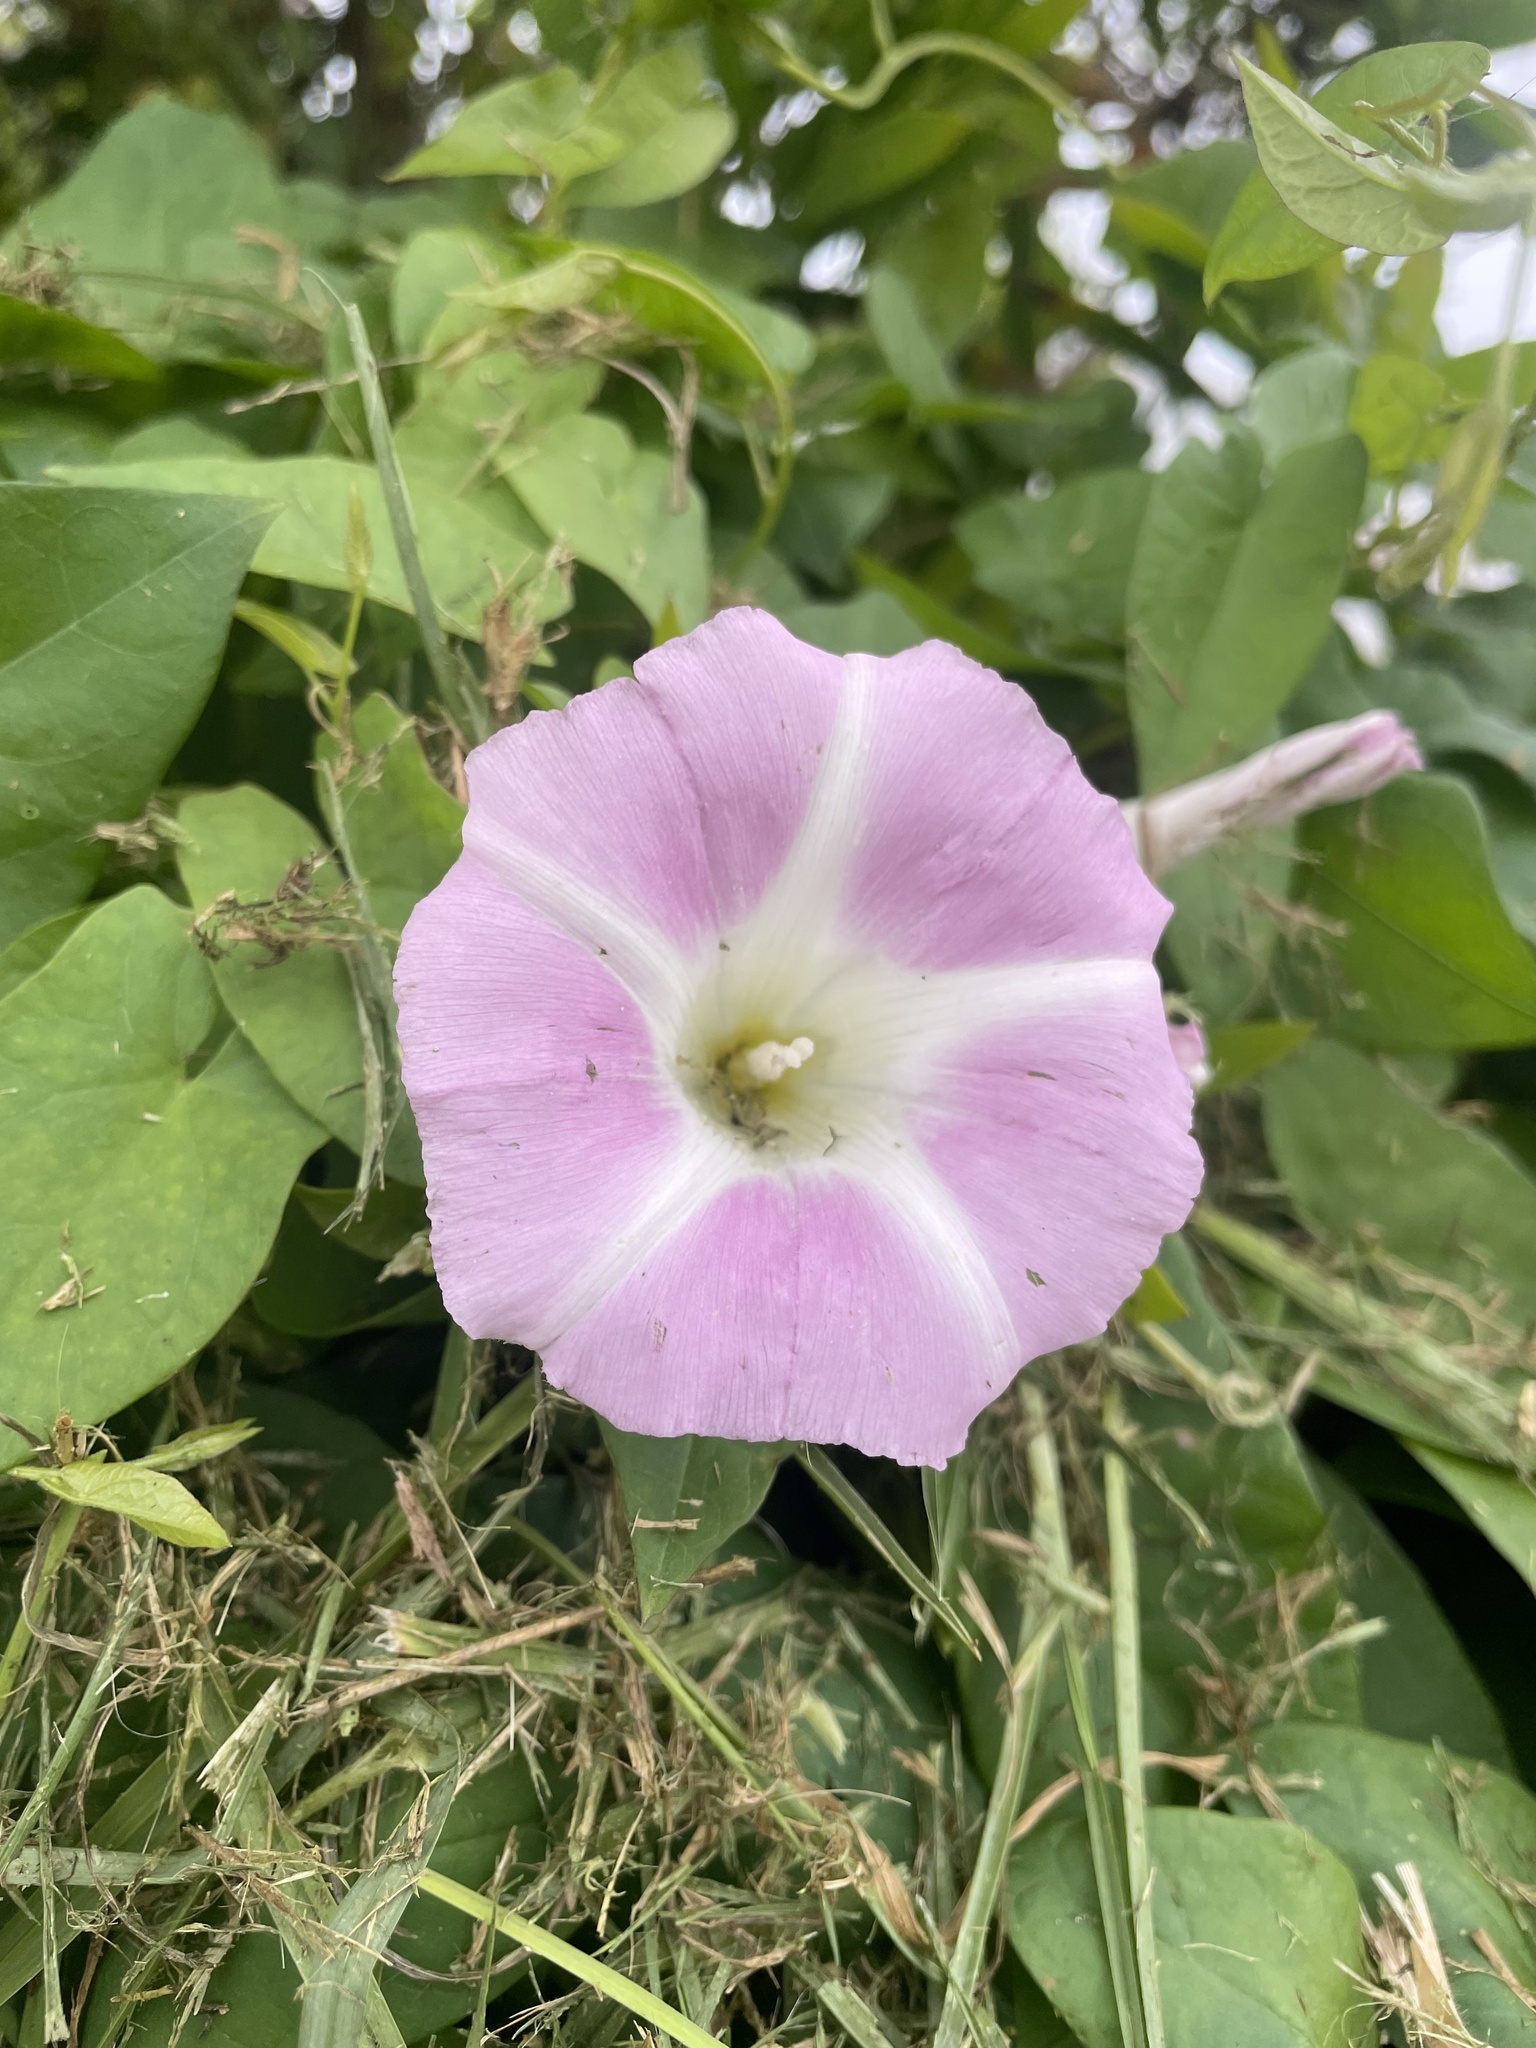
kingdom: Plantae
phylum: Tracheophyta
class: Magnoliopsida
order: Solanales
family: Convolvulaceae
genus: Calystegia
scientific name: Calystegia sepium
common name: Hedge bindweed
